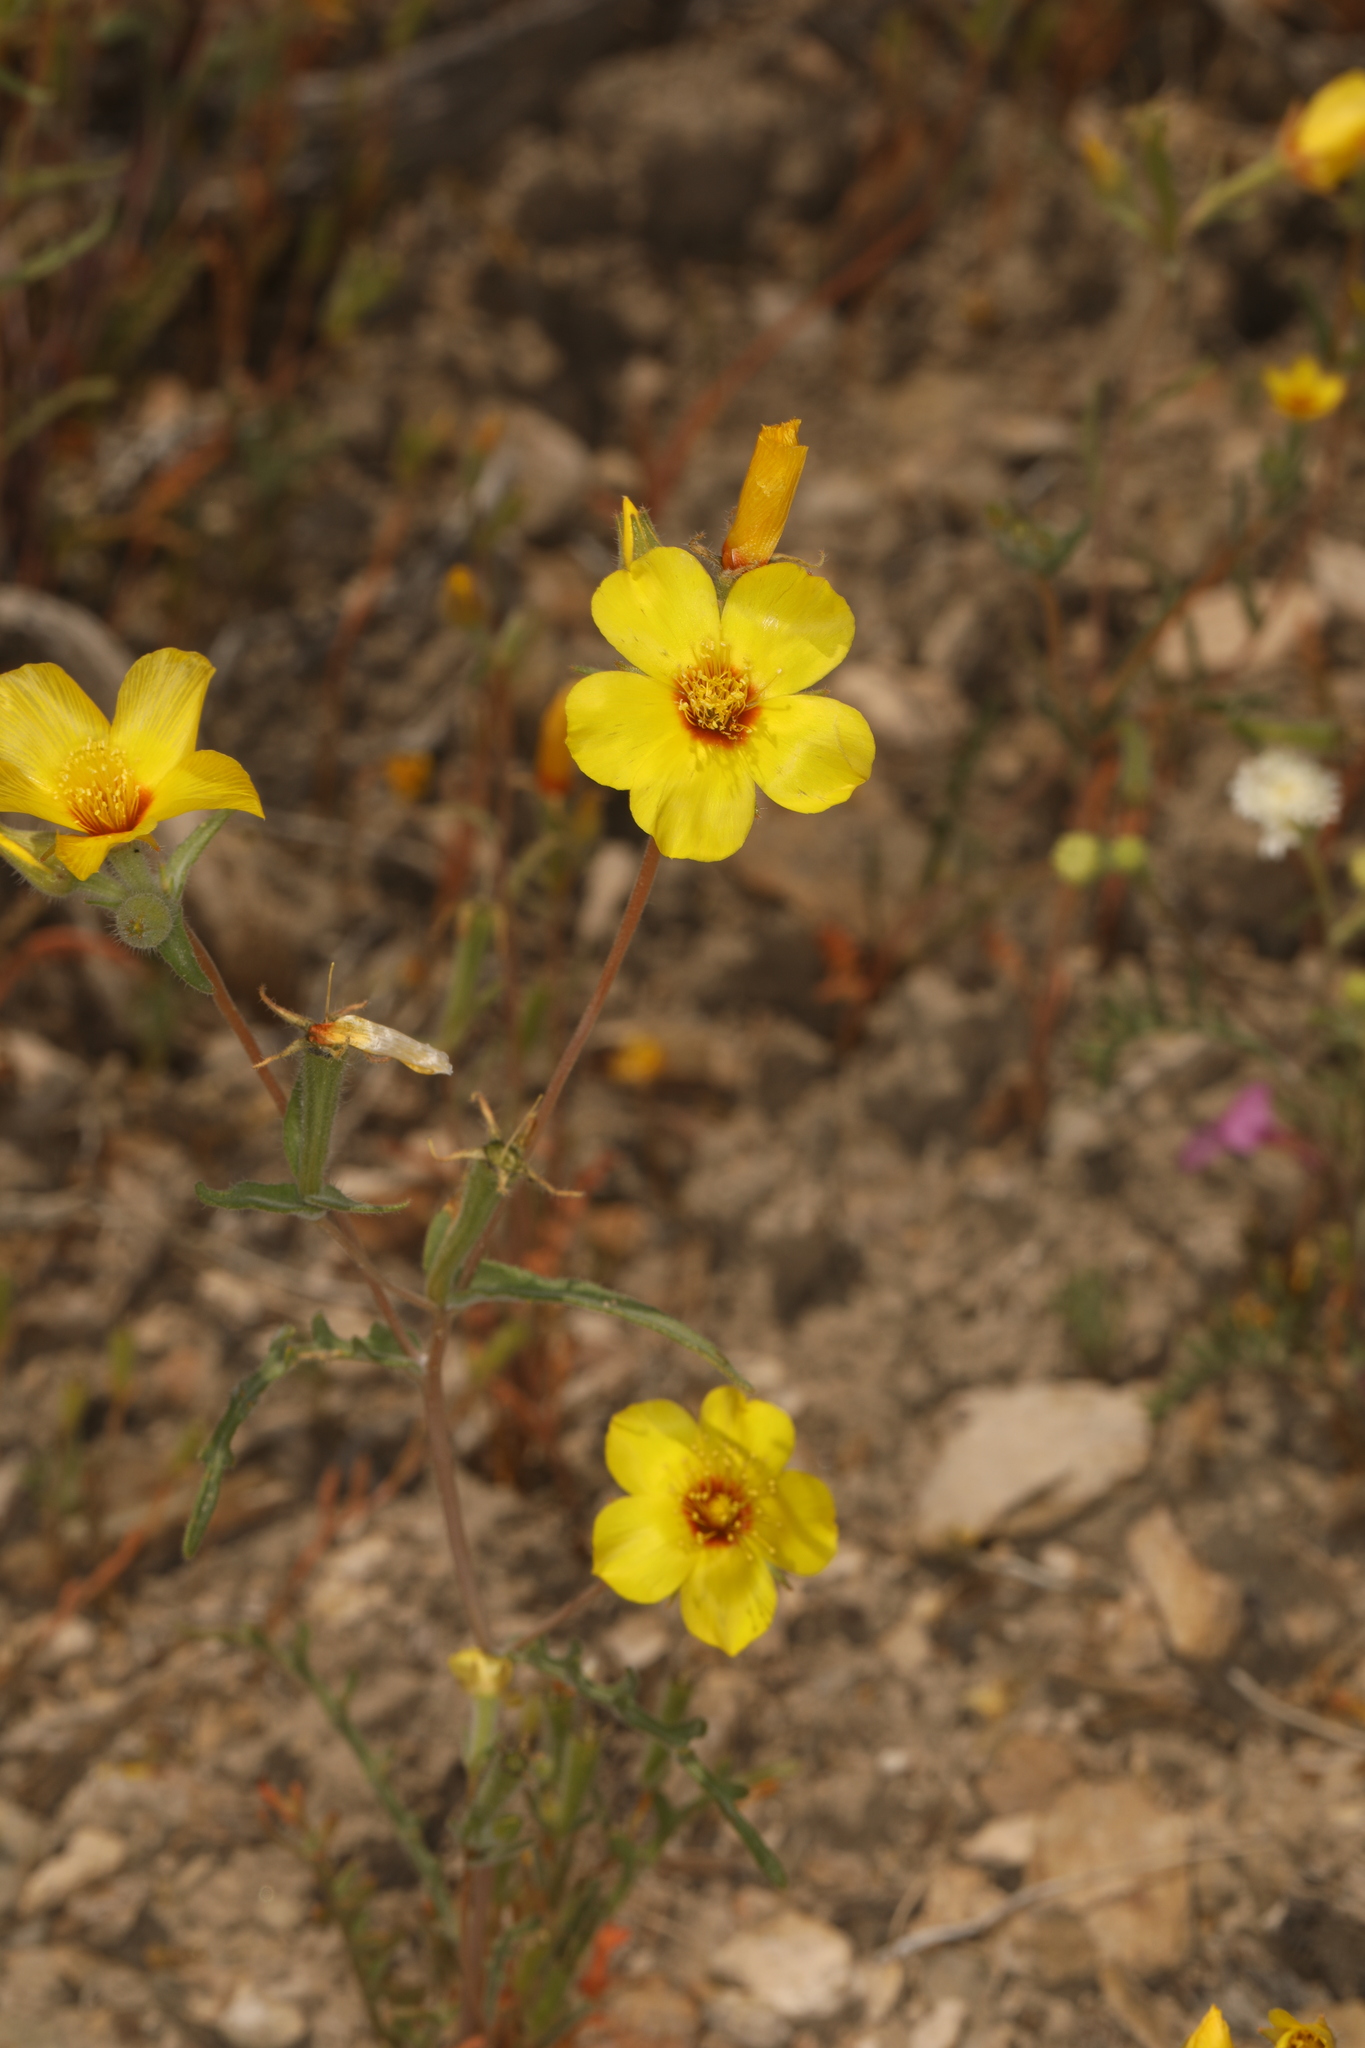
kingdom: Plantae
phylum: Tracheophyta
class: Magnoliopsida
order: Cornales
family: Loasaceae
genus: Mentzelia
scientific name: Mentzelia nitens
